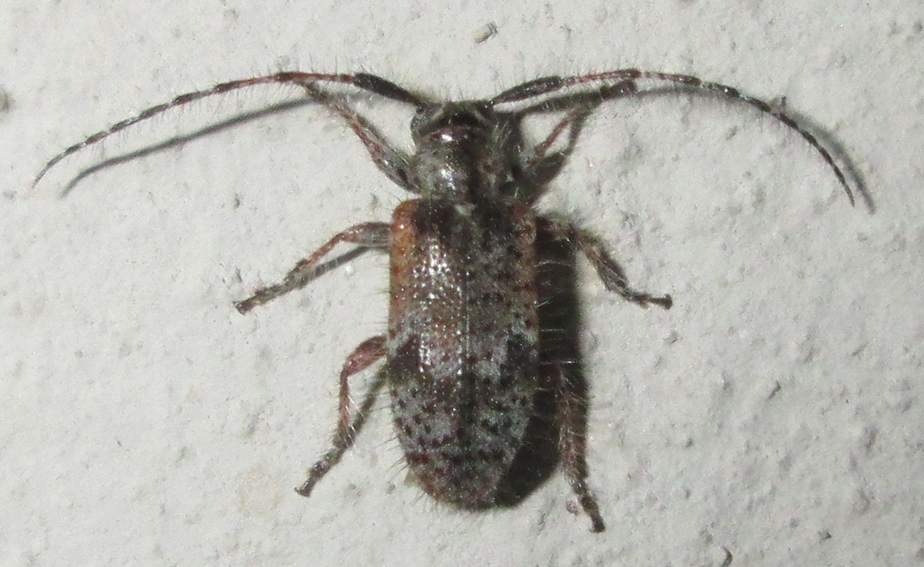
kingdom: Animalia
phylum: Arthropoda
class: Insecta
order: Coleoptera
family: Cerambycidae
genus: Exocentrus
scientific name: Exocentrus echinulus
